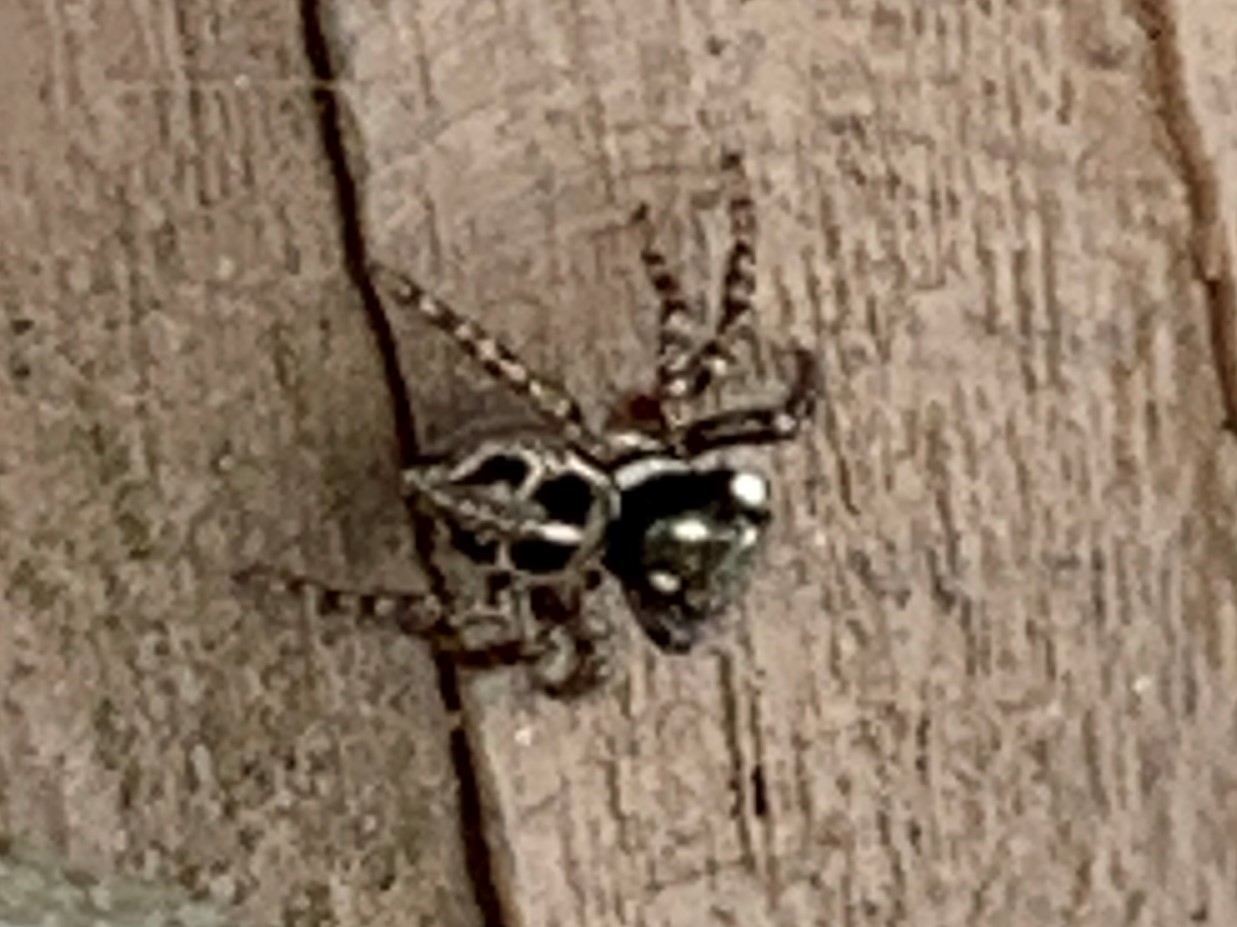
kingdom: Animalia
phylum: Arthropoda
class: Arachnida
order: Araneae
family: Salticidae
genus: Anasaitis
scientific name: Anasaitis canosa
